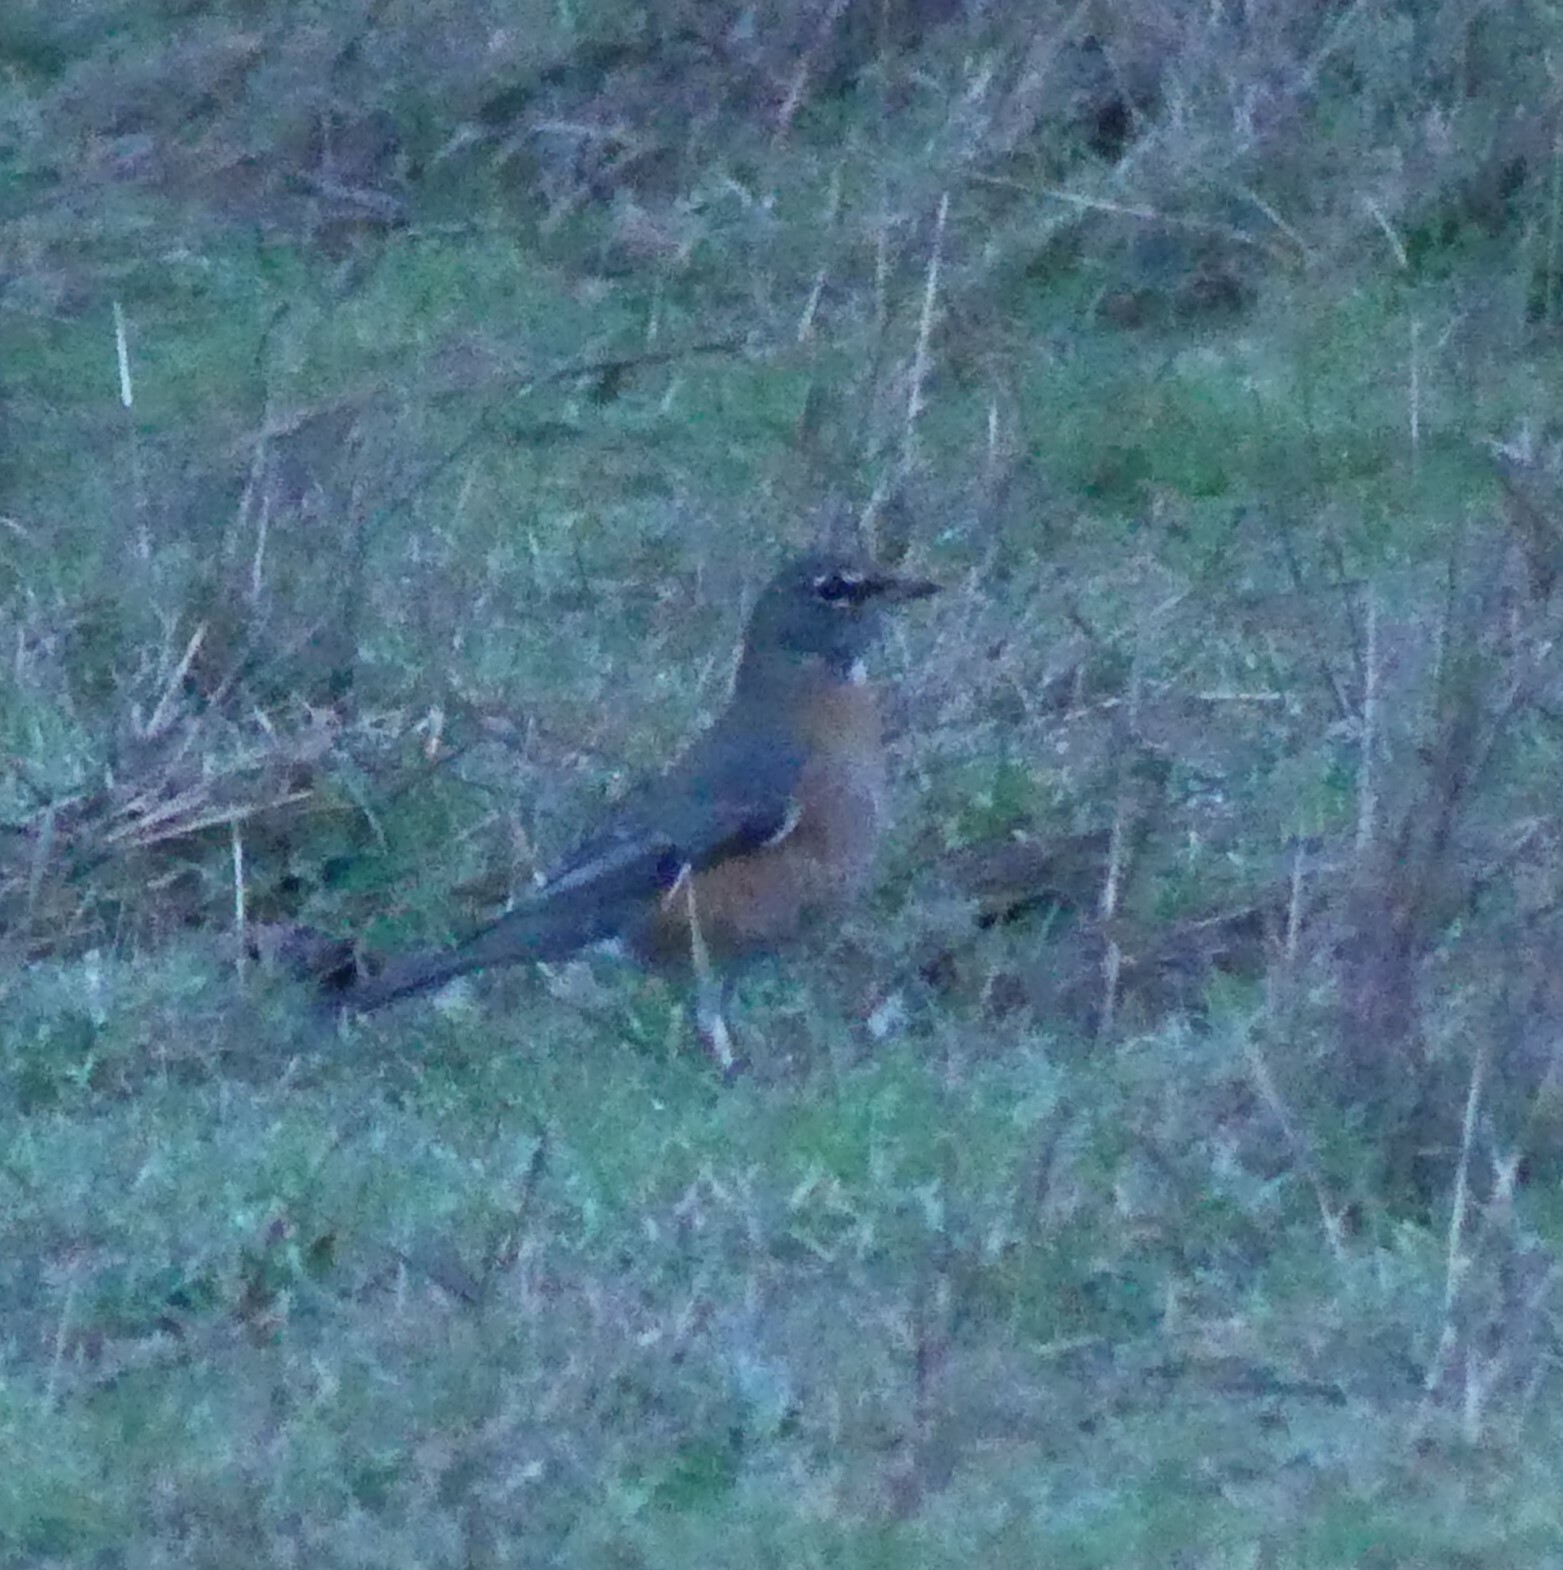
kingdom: Animalia
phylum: Chordata
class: Aves
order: Passeriformes
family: Turdidae
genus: Turdus
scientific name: Turdus migratorius
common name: American robin
